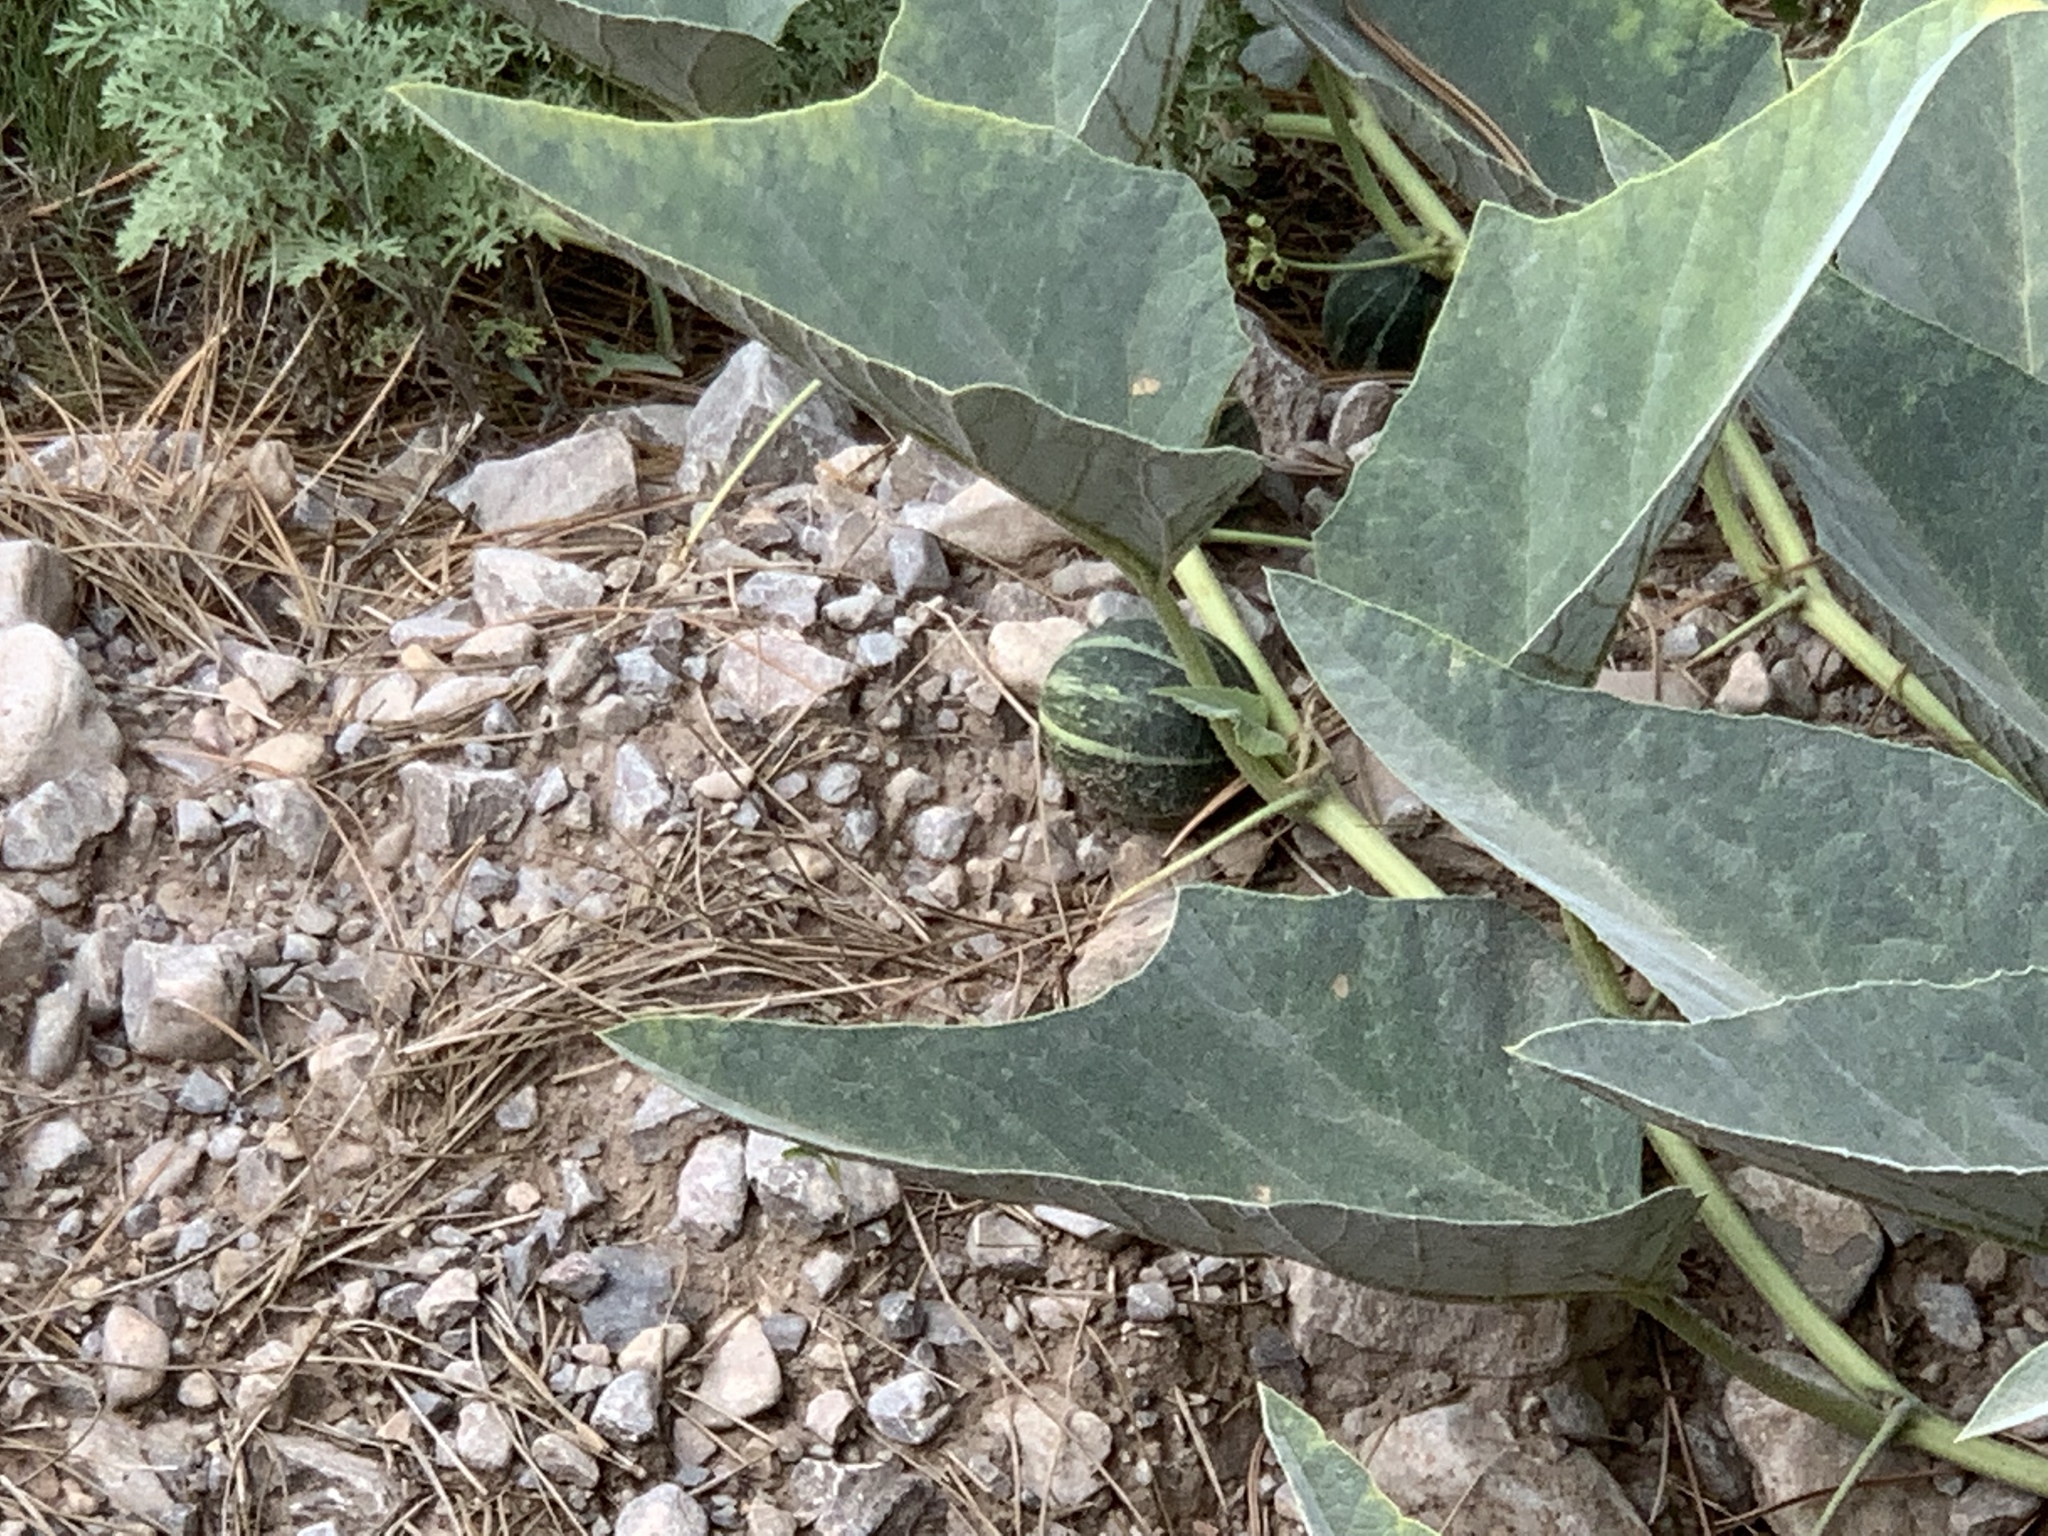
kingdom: Plantae
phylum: Tracheophyta
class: Magnoliopsida
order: Cucurbitales
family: Cucurbitaceae
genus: Cucurbita
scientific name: Cucurbita foetidissima
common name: Buffalo gourd
